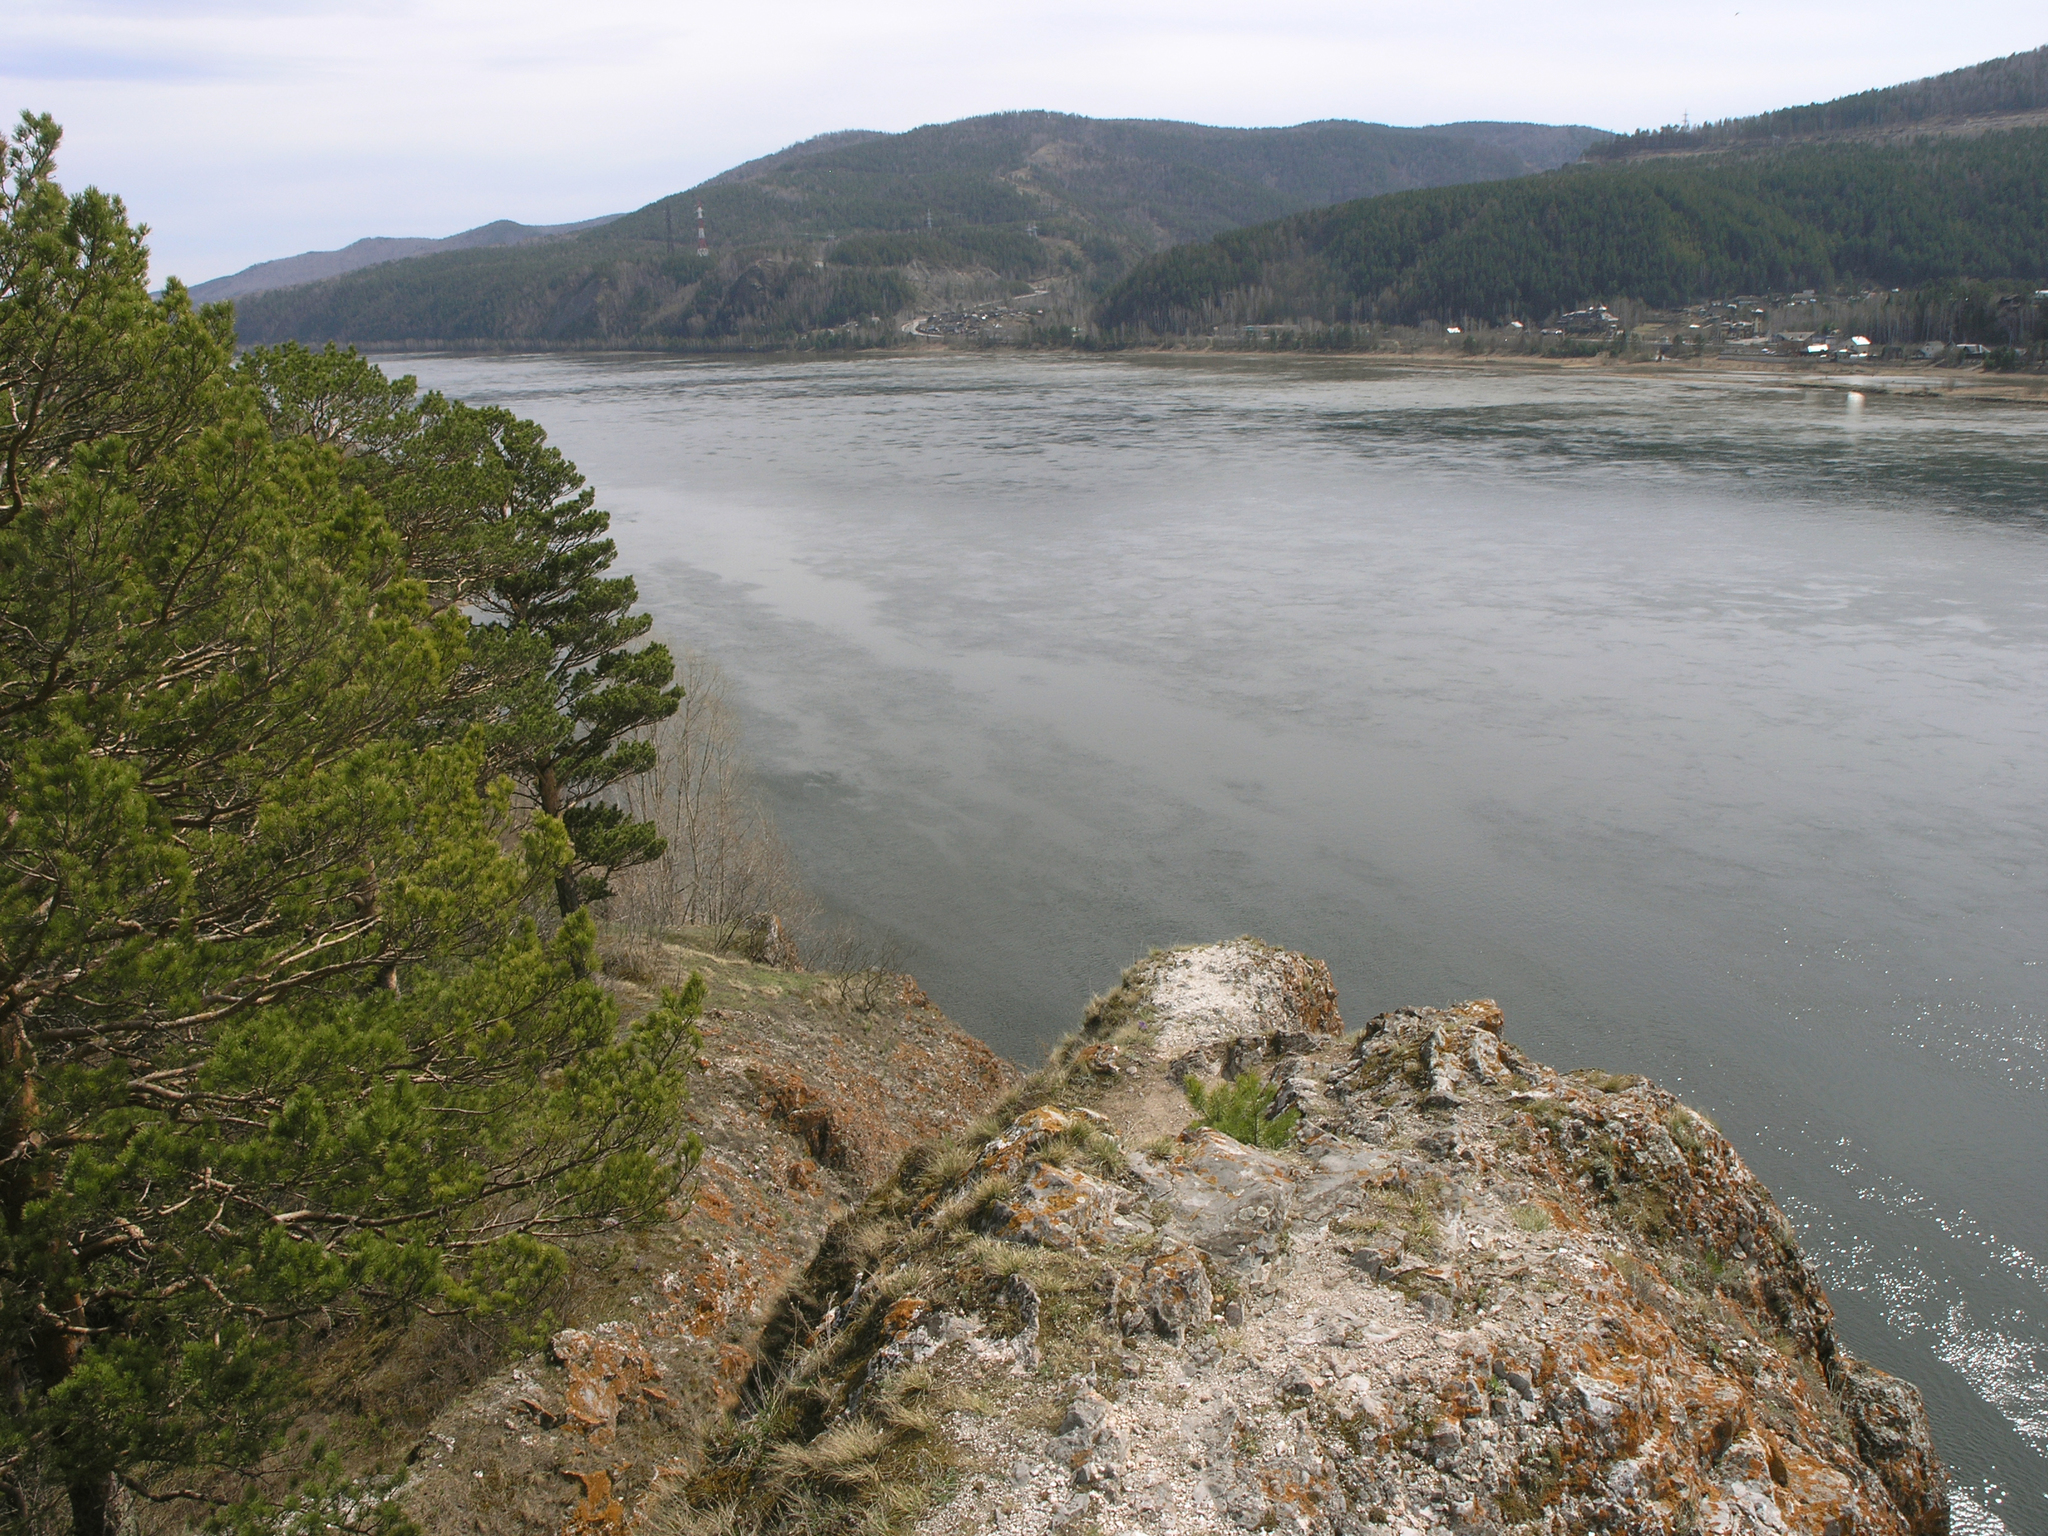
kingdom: Plantae
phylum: Tracheophyta
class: Pinopsida
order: Pinales
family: Pinaceae
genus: Pinus
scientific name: Pinus sylvestris
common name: Scots pine
